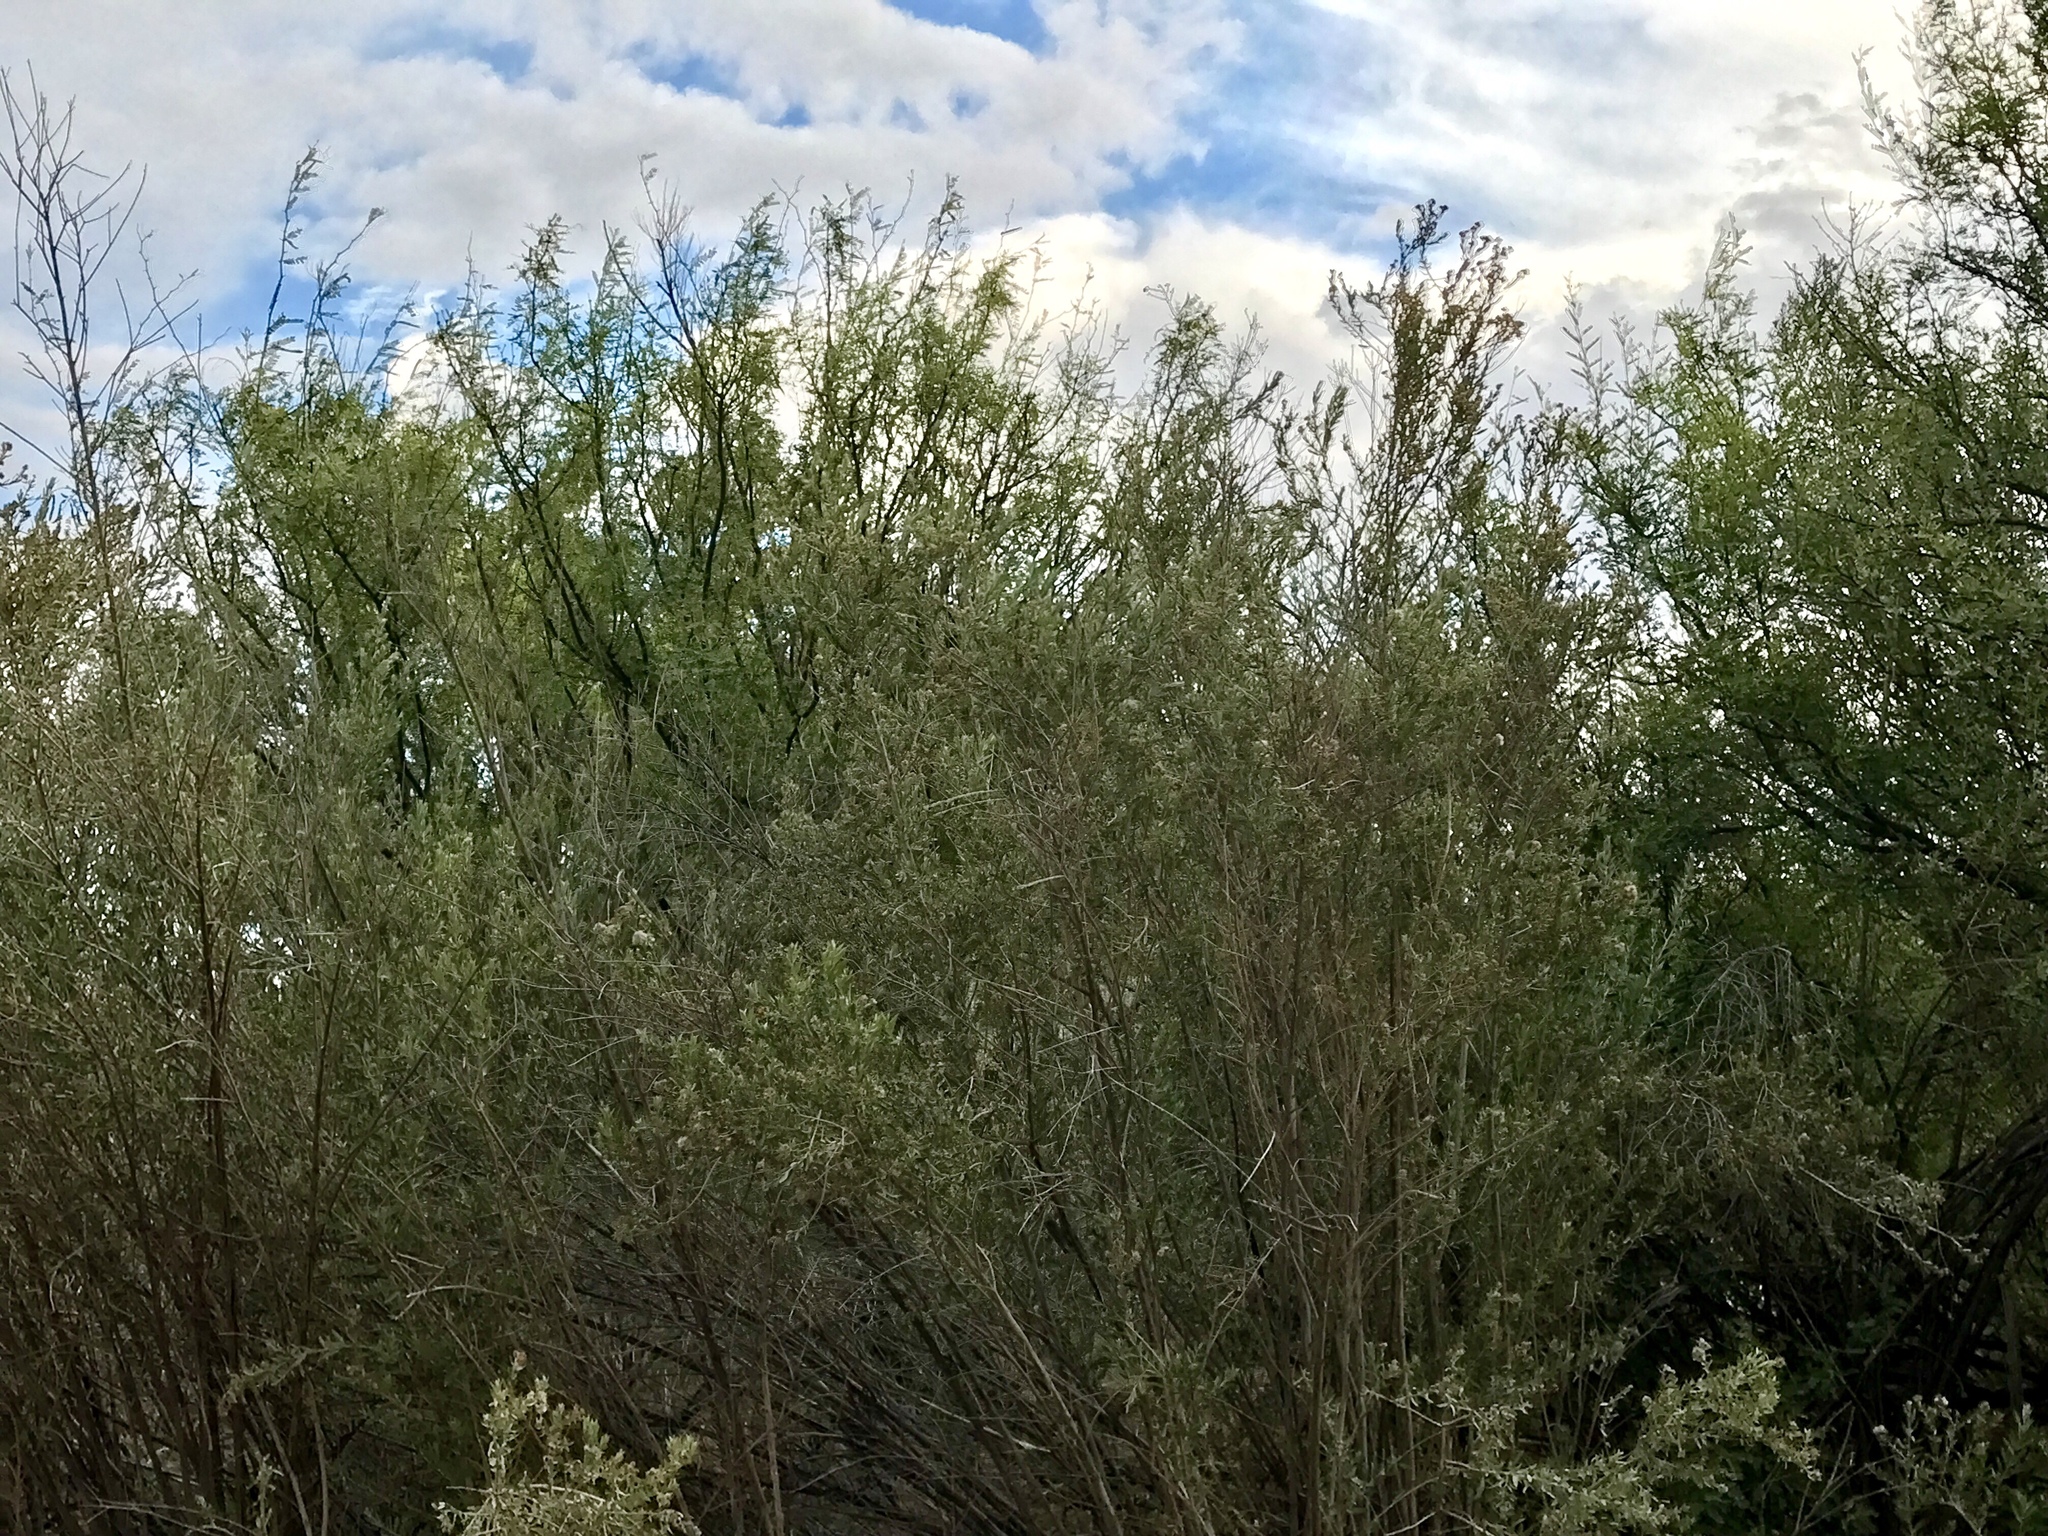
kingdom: Plantae
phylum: Tracheophyta
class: Magnoliopsida
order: Asterales
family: Asteraceae
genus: Pluchea
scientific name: Pluchea sericea
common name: Arrow-weed
